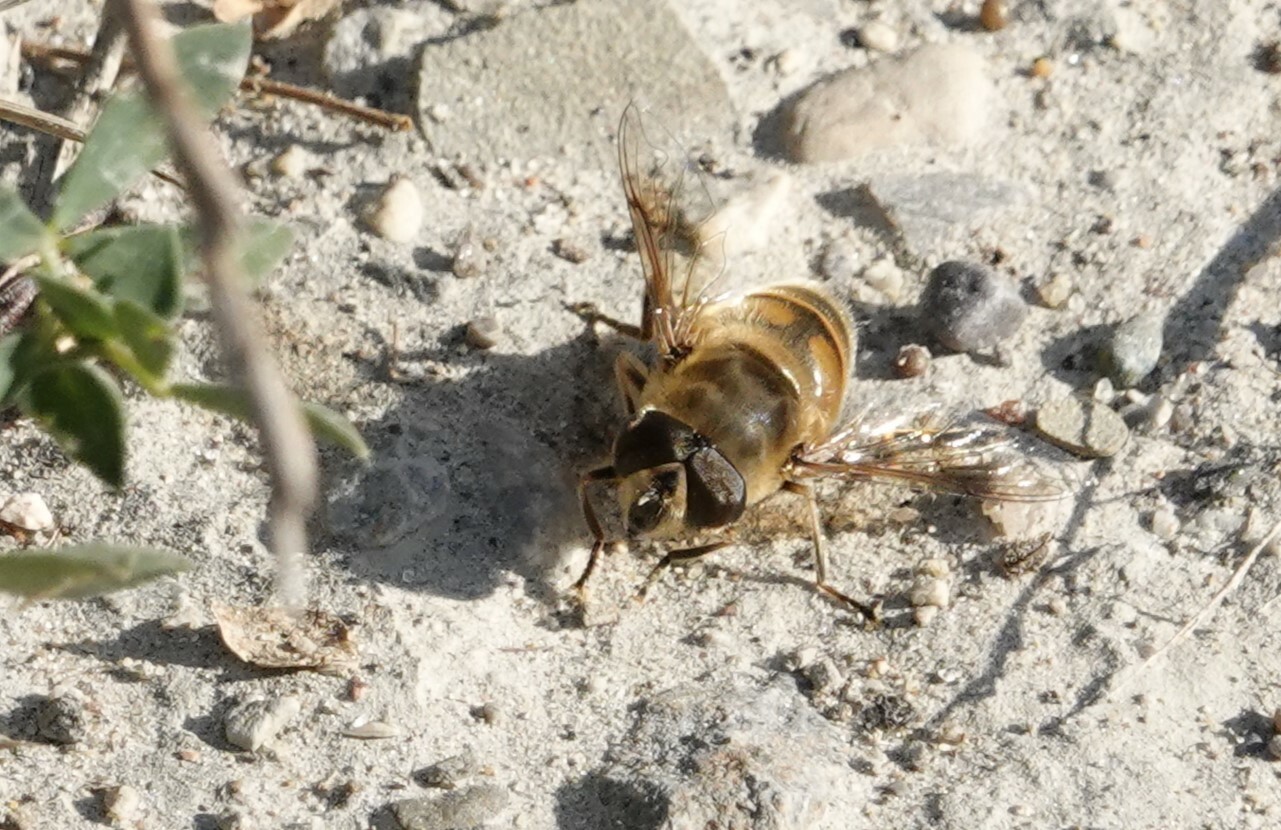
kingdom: Animalia
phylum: Arthropoda
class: Insecta
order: Diptera
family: Syrphidae
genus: Eristalis
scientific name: Eristalis tenax
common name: Drone fly
